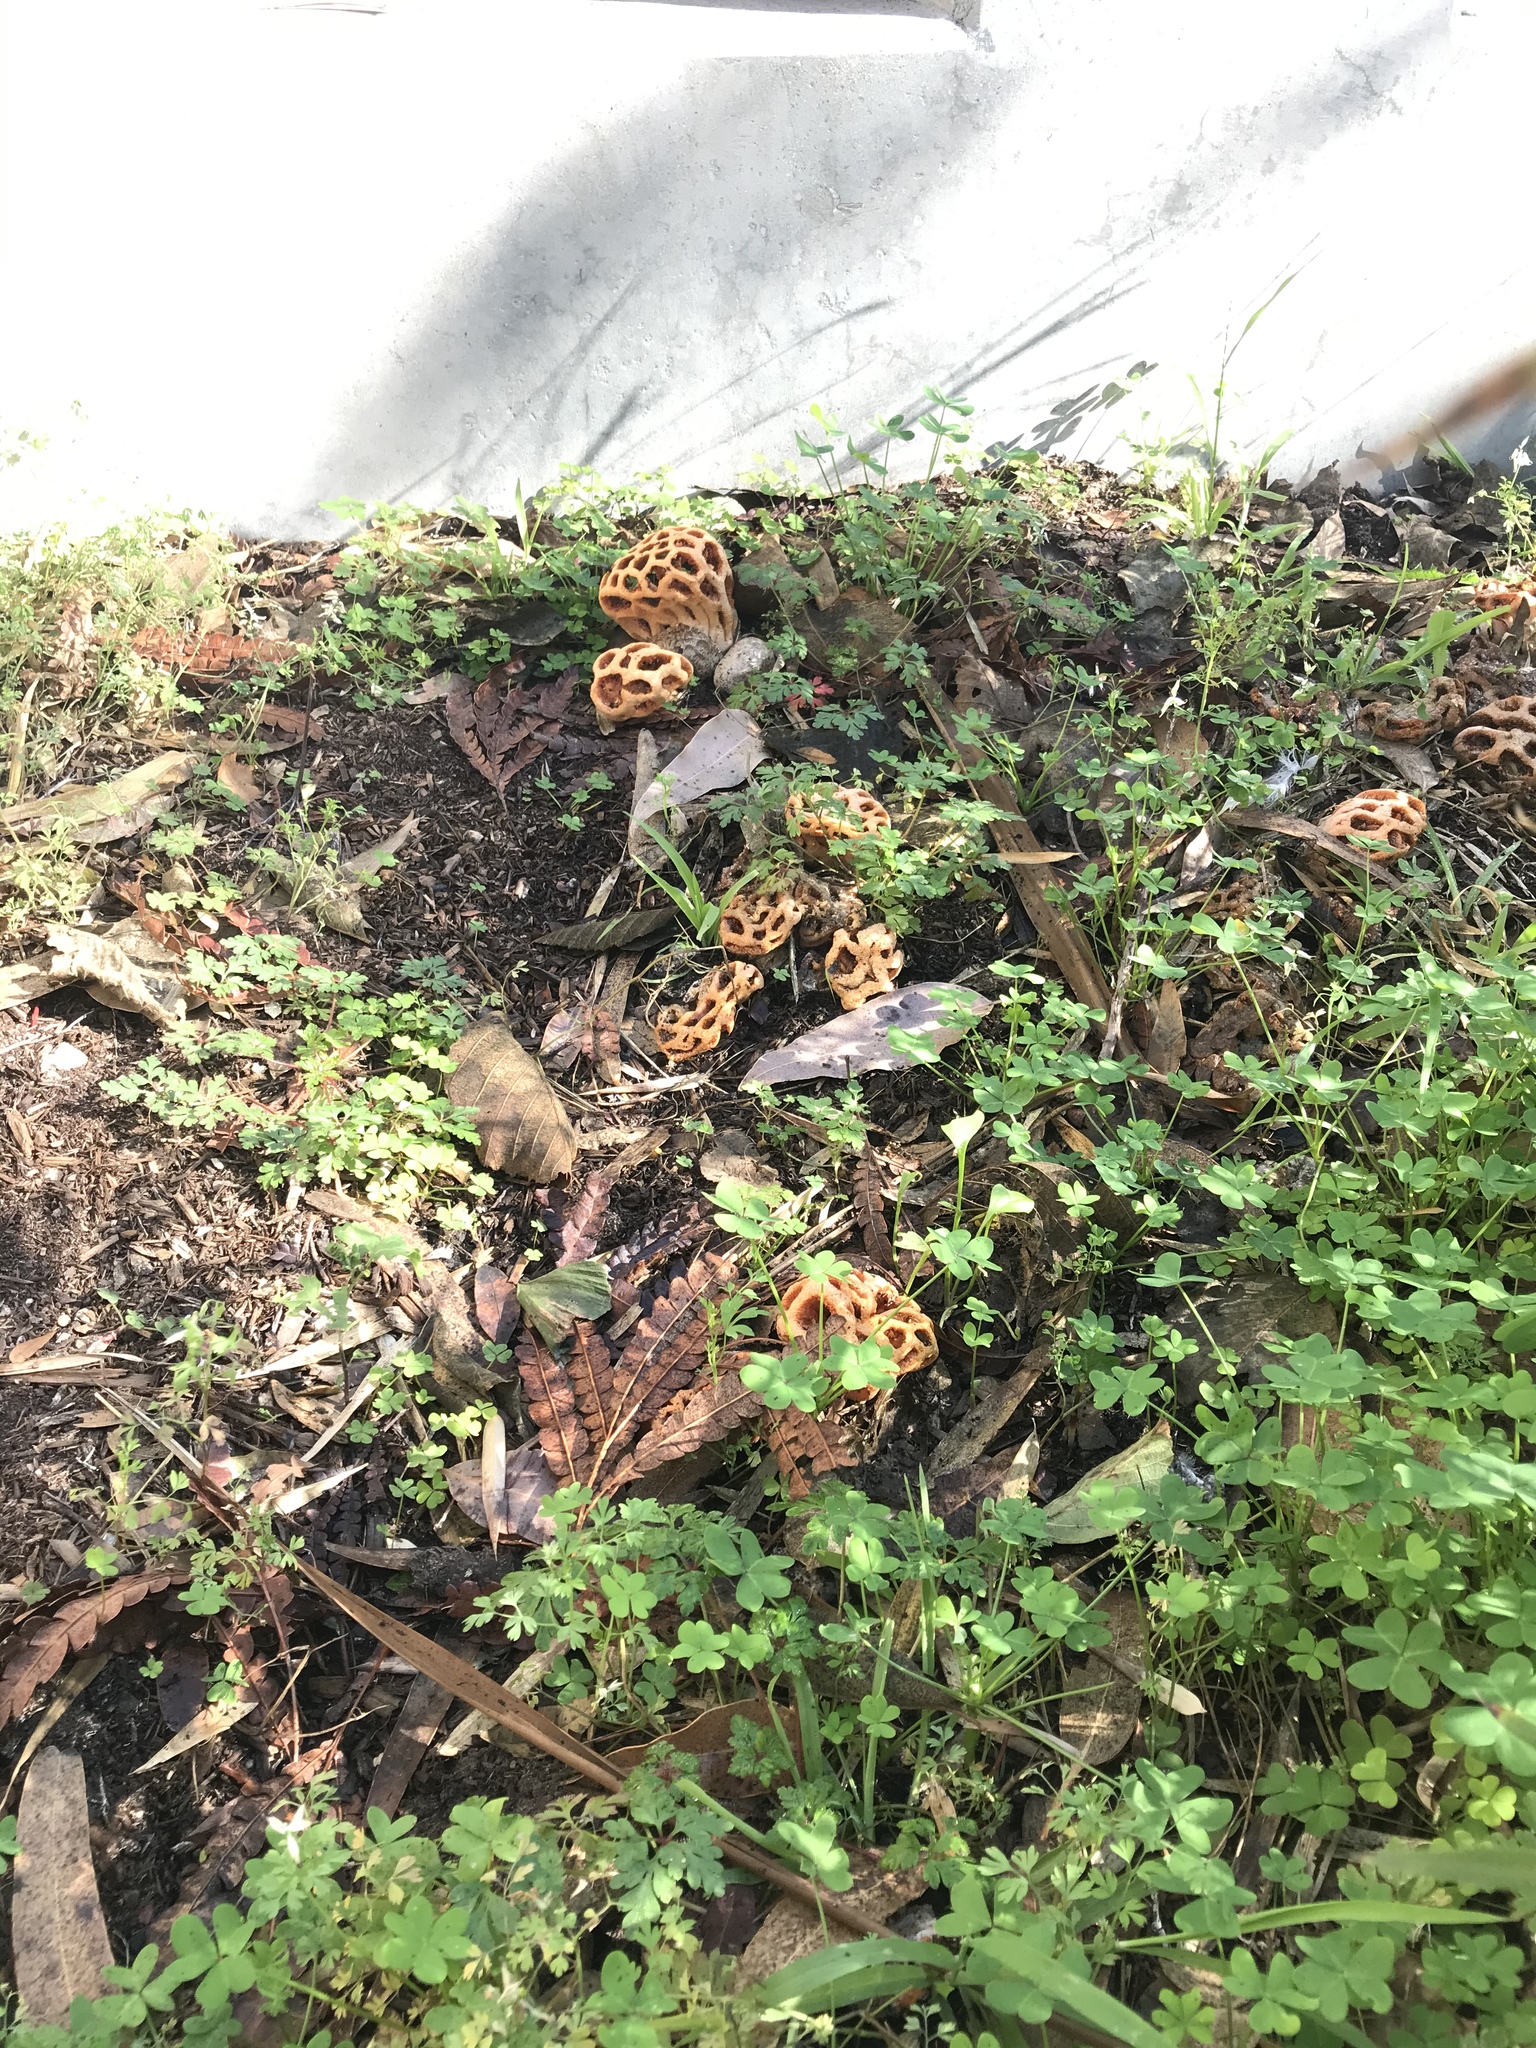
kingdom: Fungi
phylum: Basidiomycota
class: Agaricomycetes
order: Phallales
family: Phallaceae
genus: Clathrus
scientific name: Clathrus ruber
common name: Red cage
